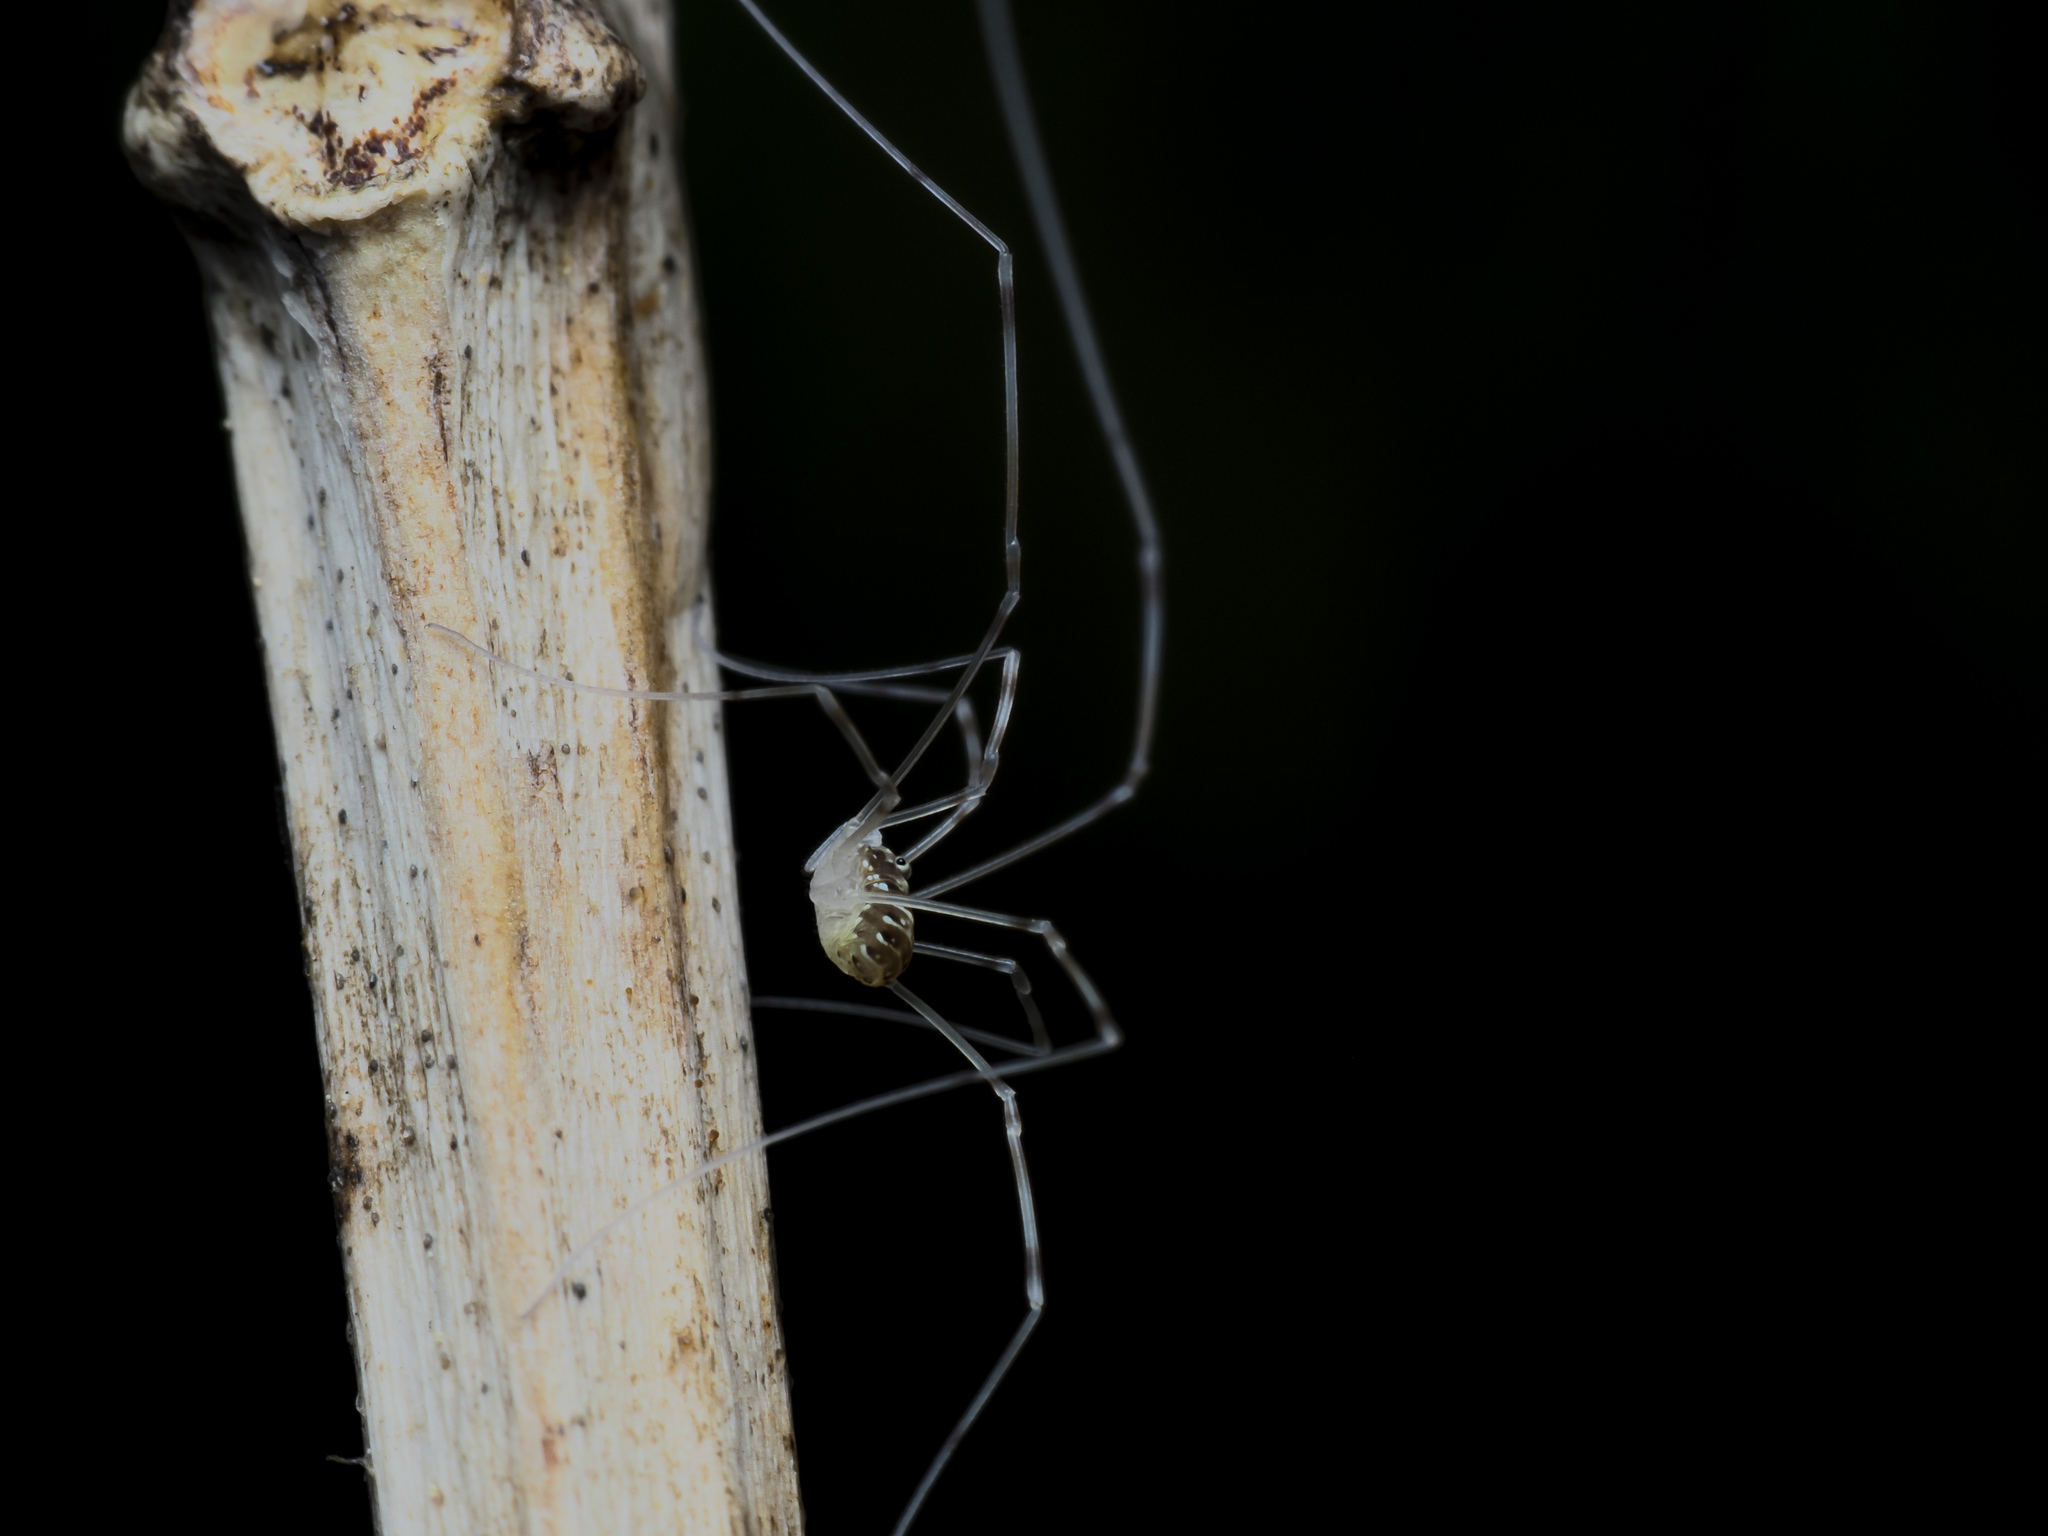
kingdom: Animalia
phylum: Arthropoda
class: Arachnida
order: Opiliones
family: Phalangiidae
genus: Opilio
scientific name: Opilio canestrinii
